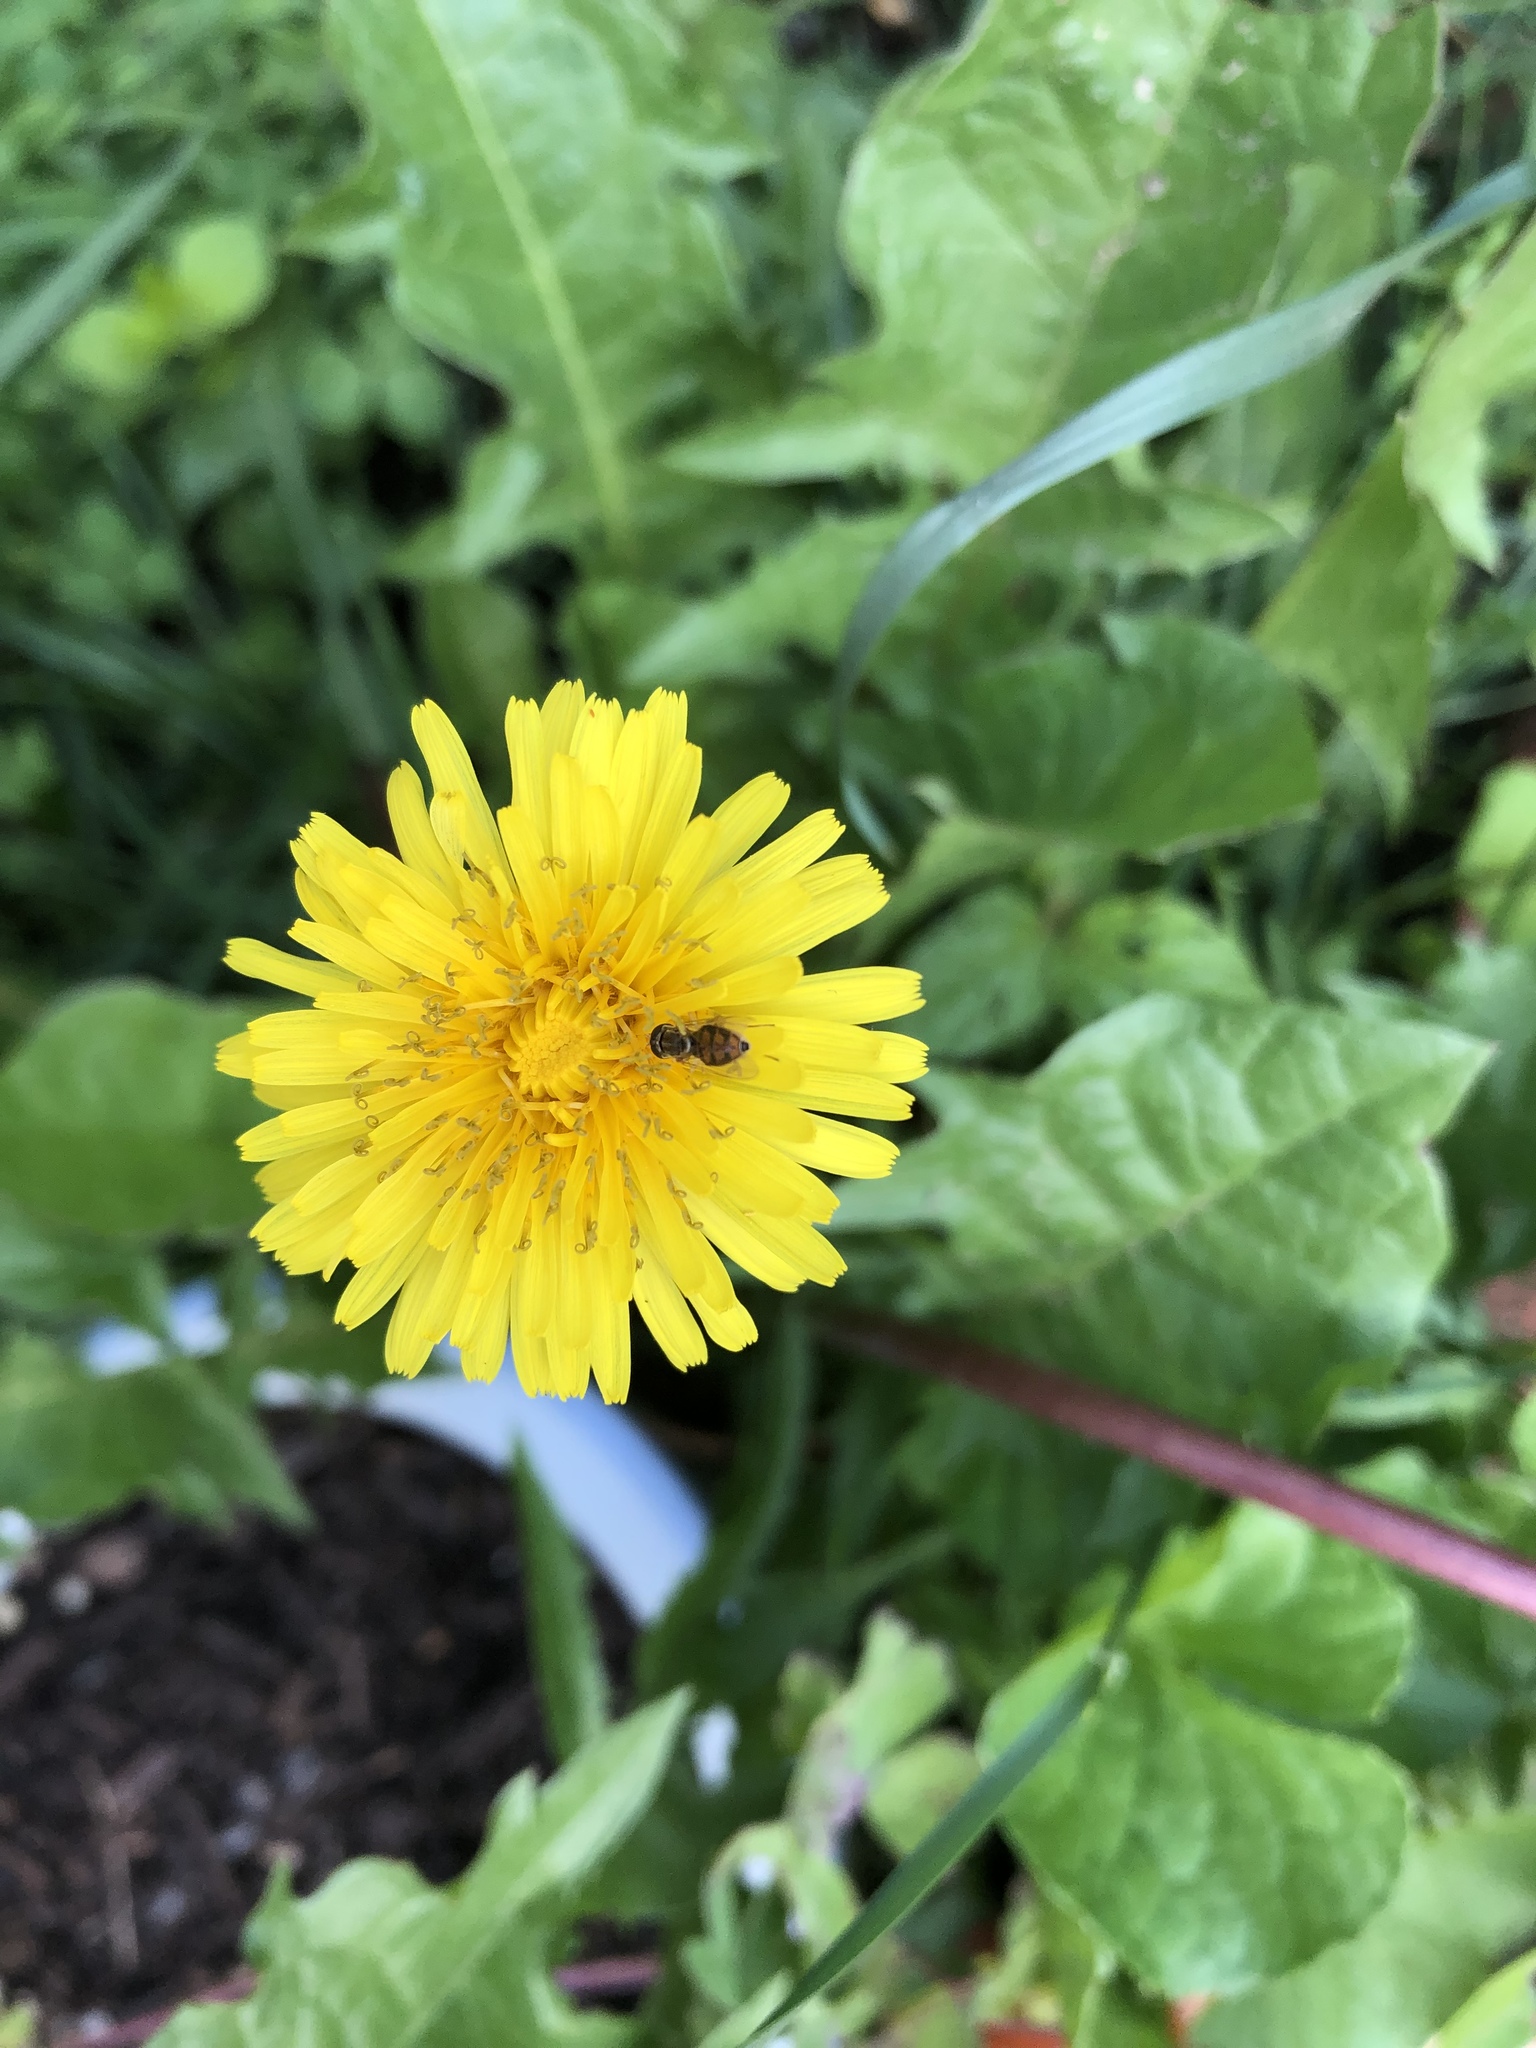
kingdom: Animalia
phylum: Arthropoda
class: Insecta
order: Diptera
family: Syrphidae
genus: Toxomerus
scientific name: Toxomerus marginatus
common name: Syrphid fly
